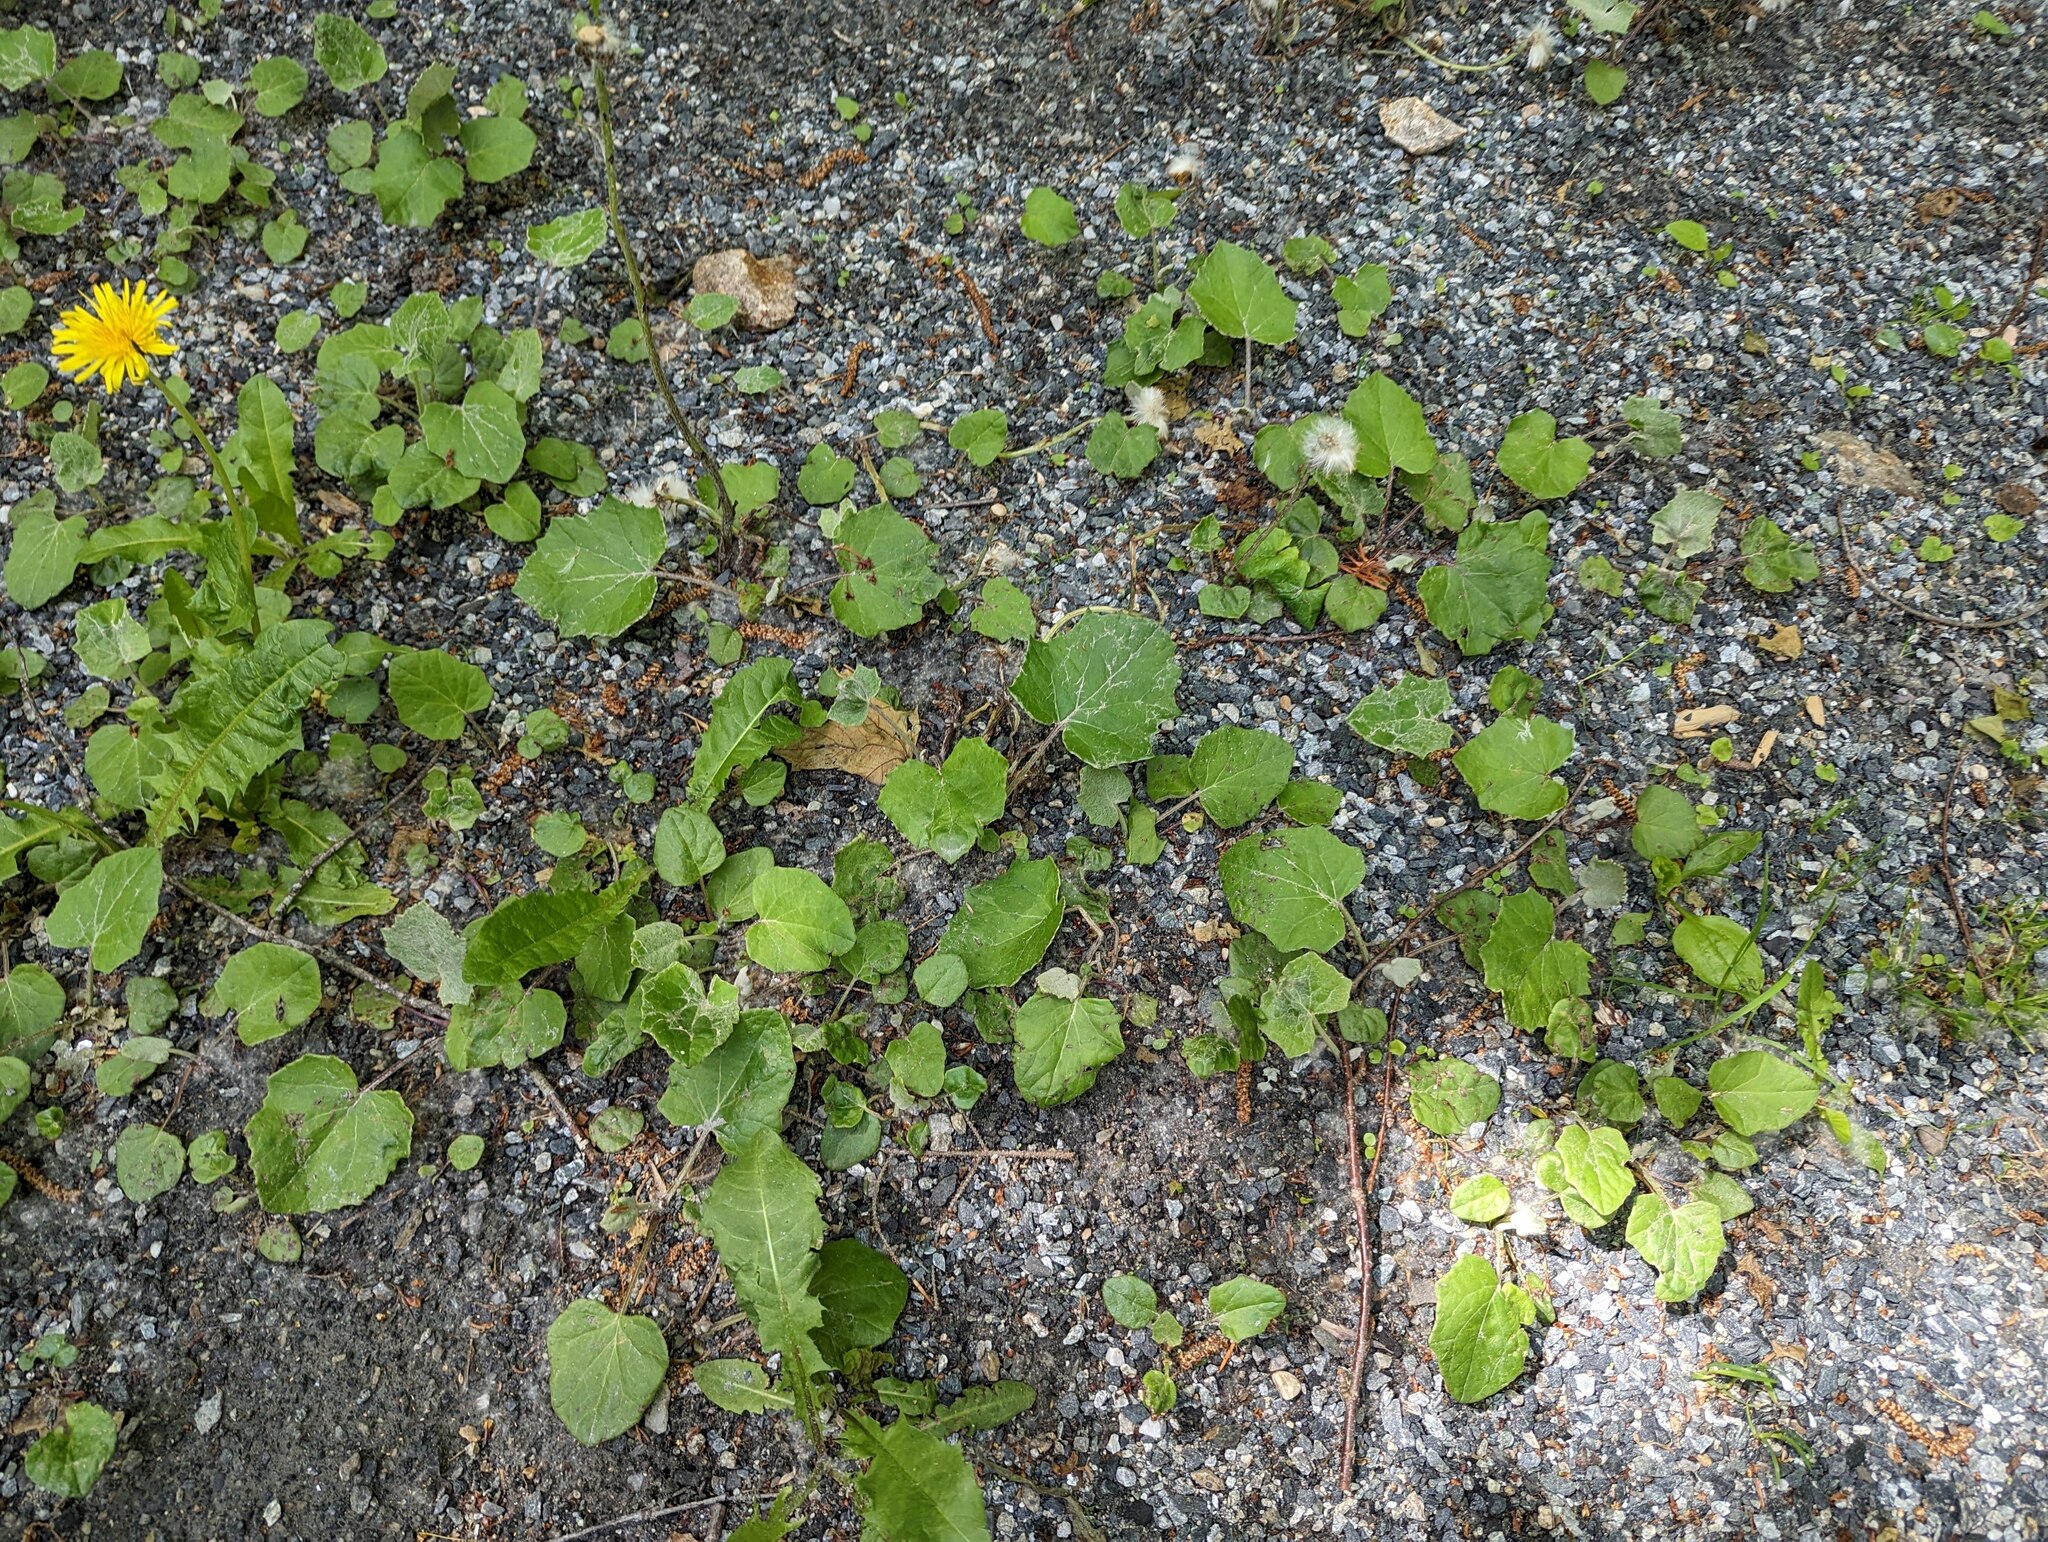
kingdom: Plantae
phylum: Tracheophyta
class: Magnoliopsida
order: Asterales
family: Asteraceae
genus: Tussilago
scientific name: Tussilago farfara
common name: Coltsfoot
